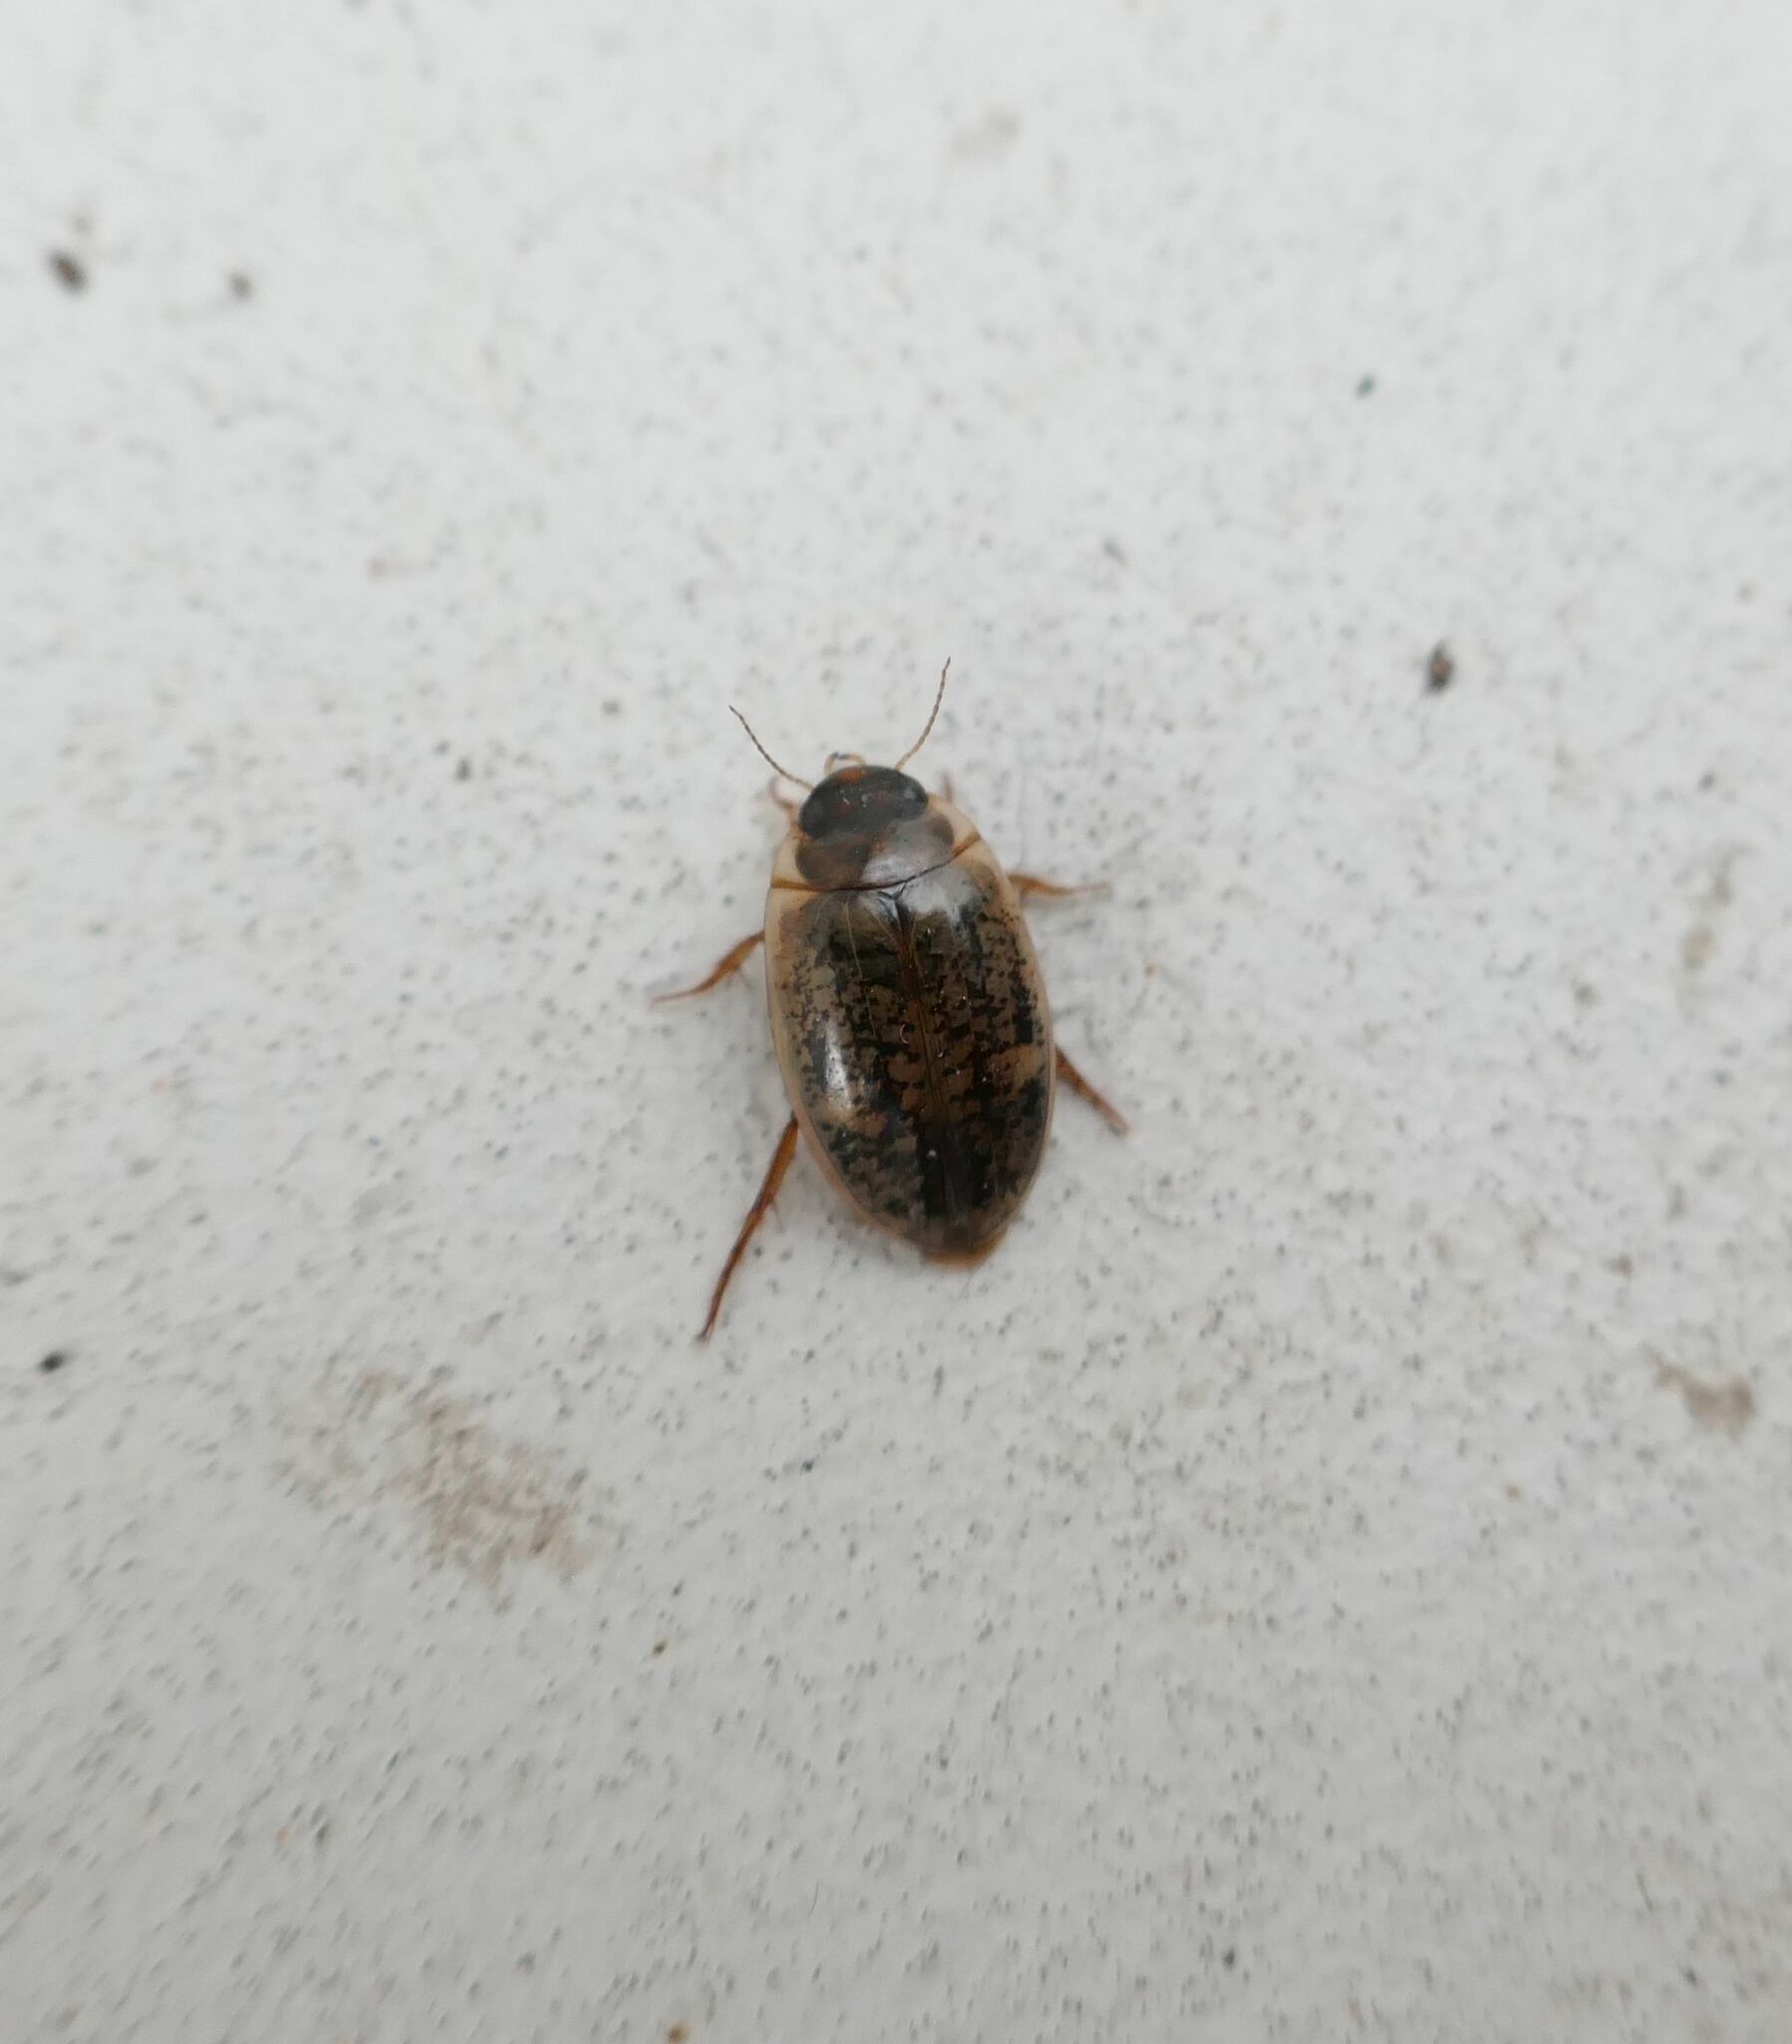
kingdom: Animalia
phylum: Arthropoda
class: Insecta
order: Coleoptera
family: Dytiscidae
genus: Agabus
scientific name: Agabus nebulosus
